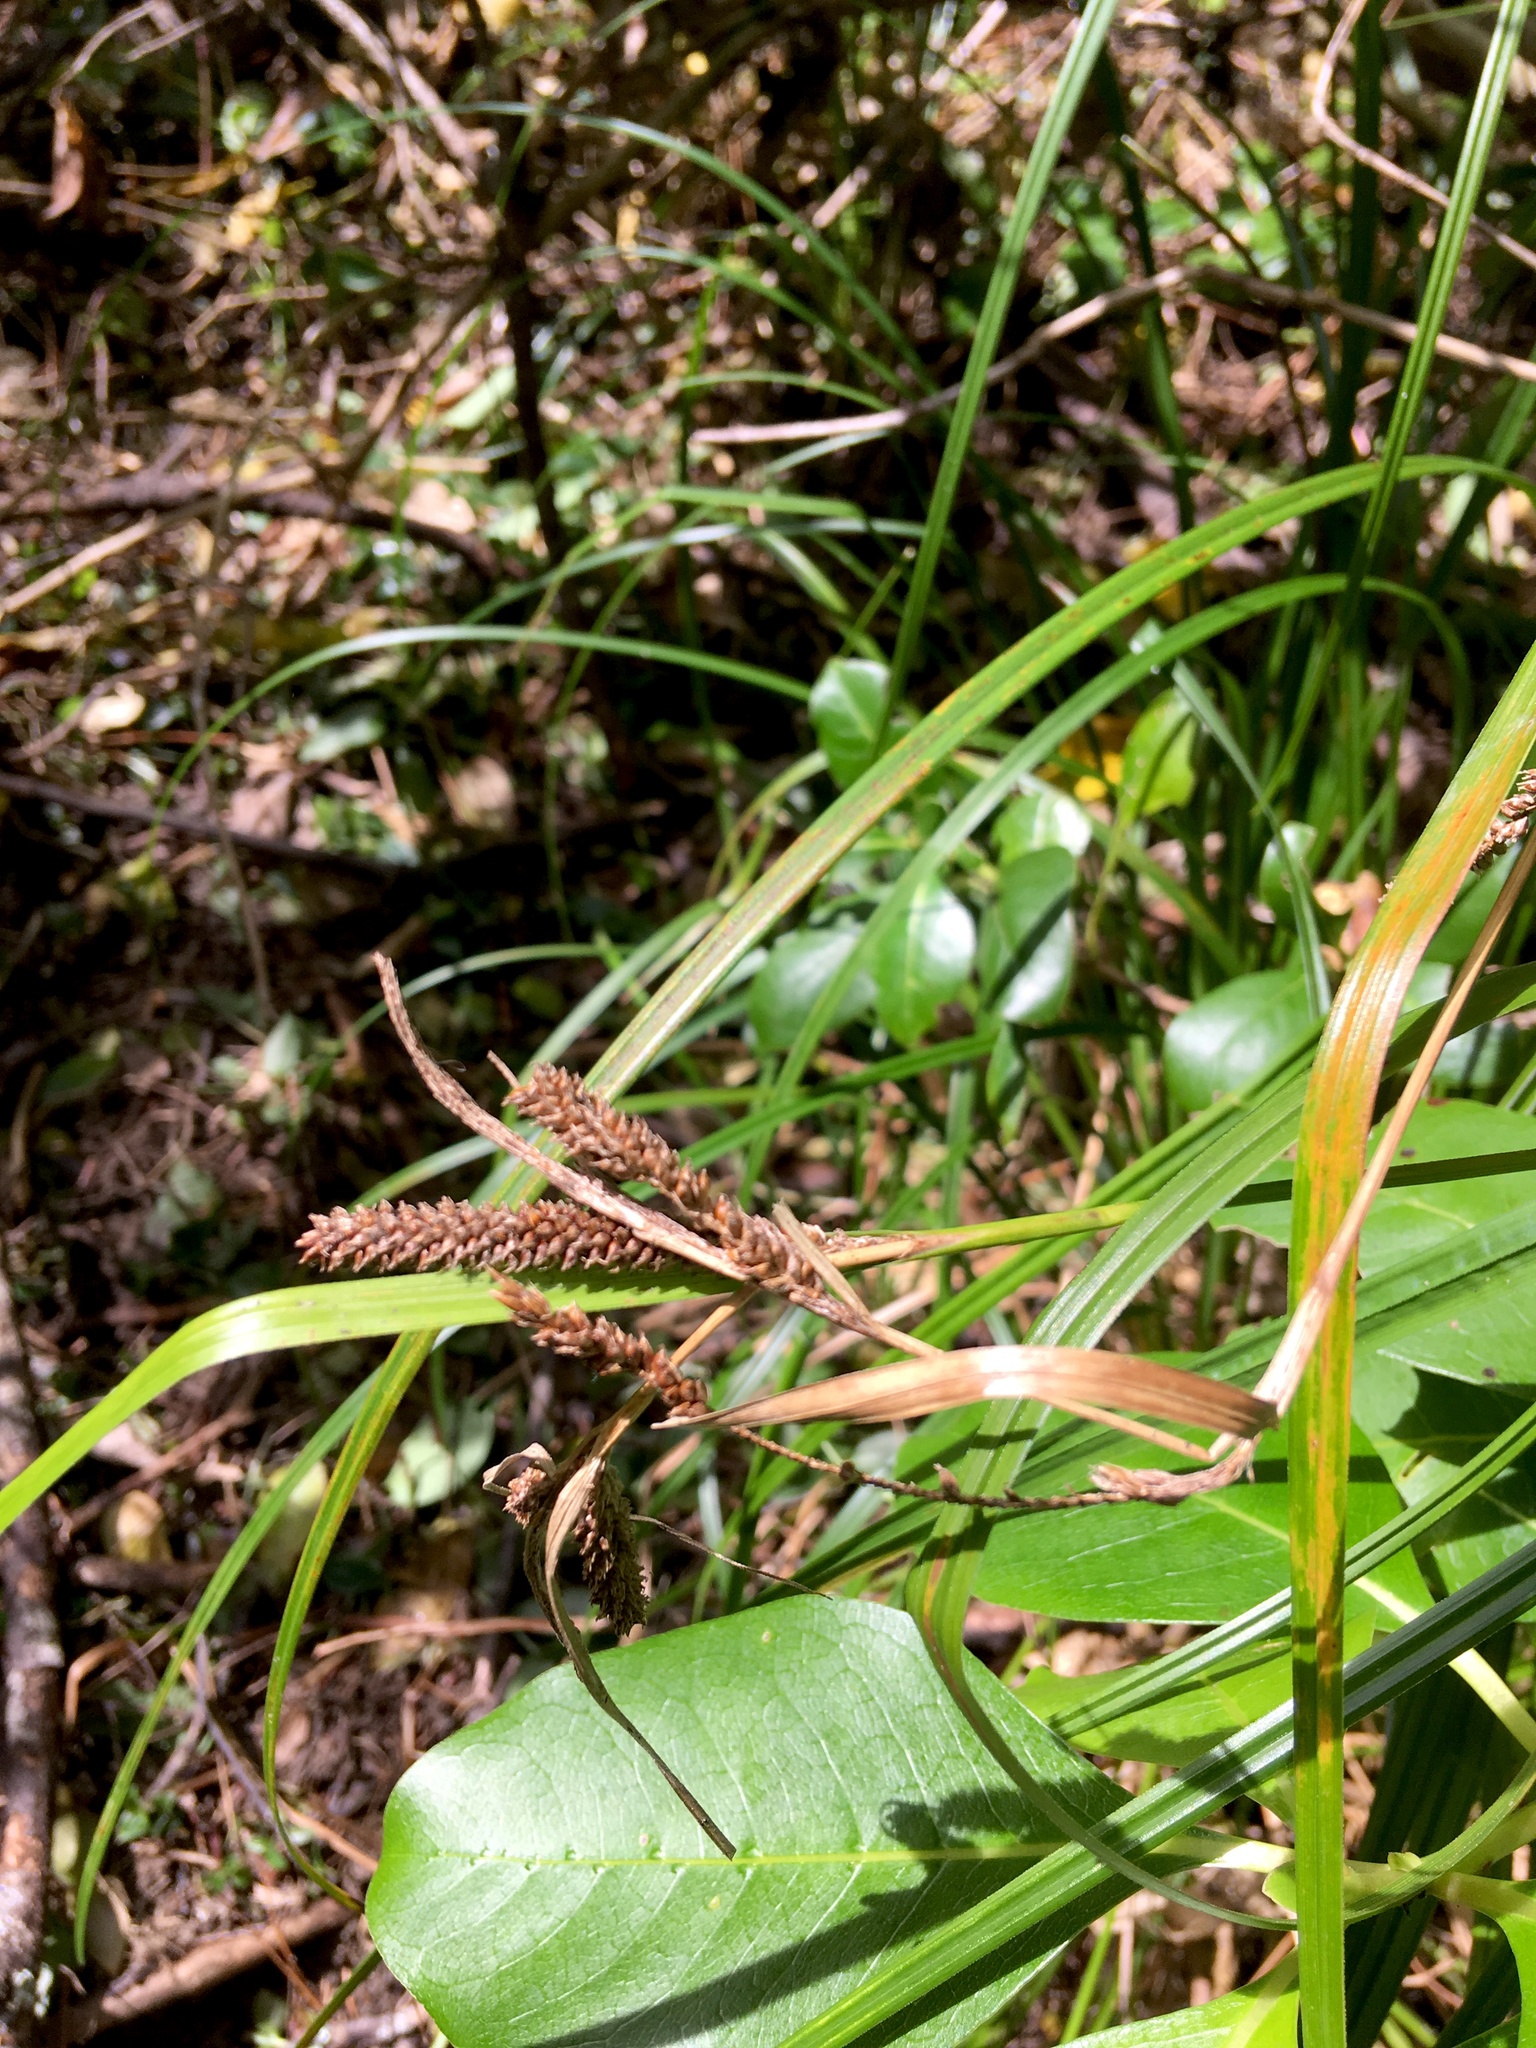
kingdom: Plantae
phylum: Tracheophyta
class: Liliopsida
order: Poales
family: Cyperaceae
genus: Carex
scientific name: Carex lambertiana
